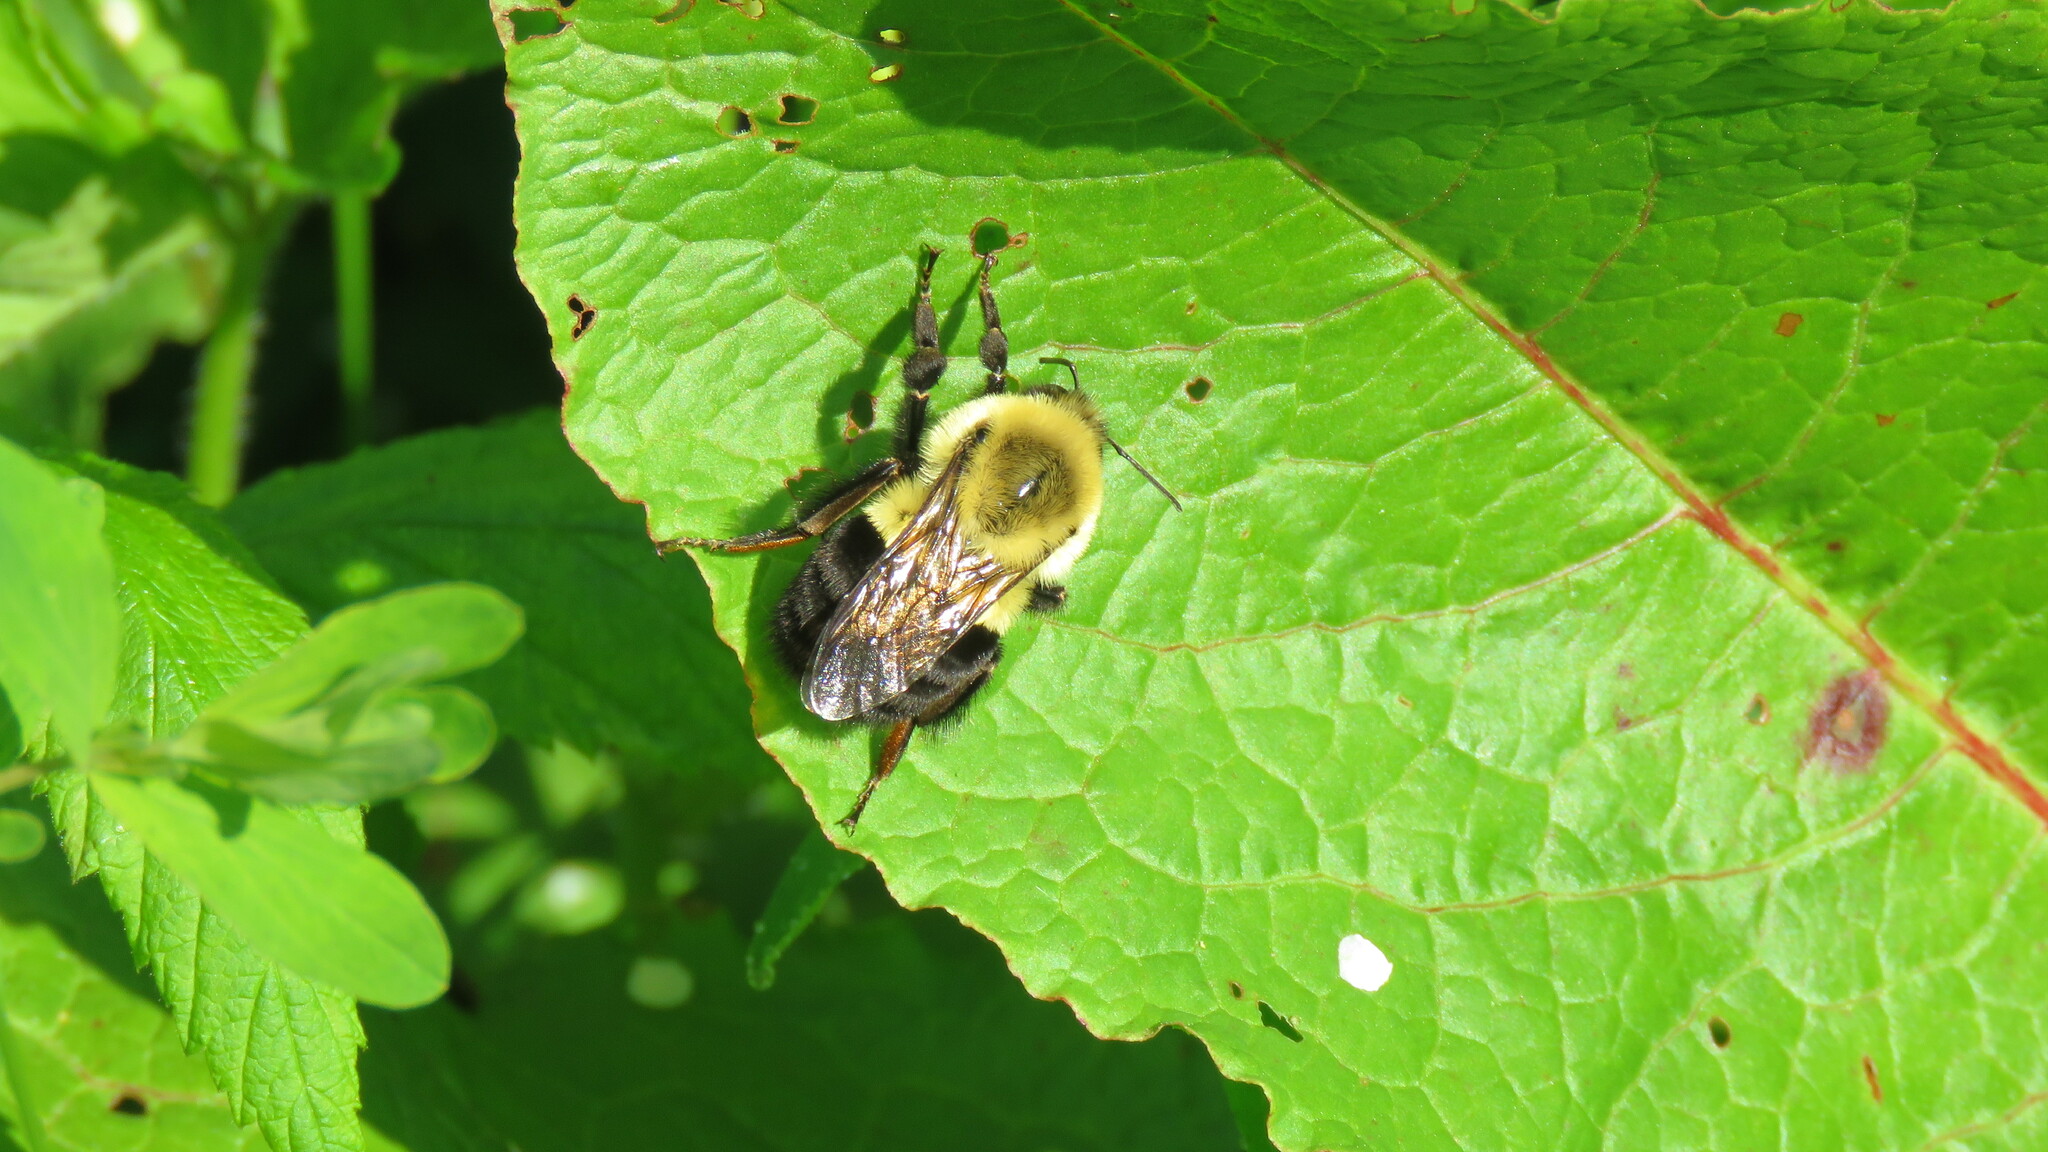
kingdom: Animalia
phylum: Arthropoda
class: Insecta
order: Hymenoptera
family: Apidae
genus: Bombus
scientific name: Bombus impatiens
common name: Common eastern bumble bee
